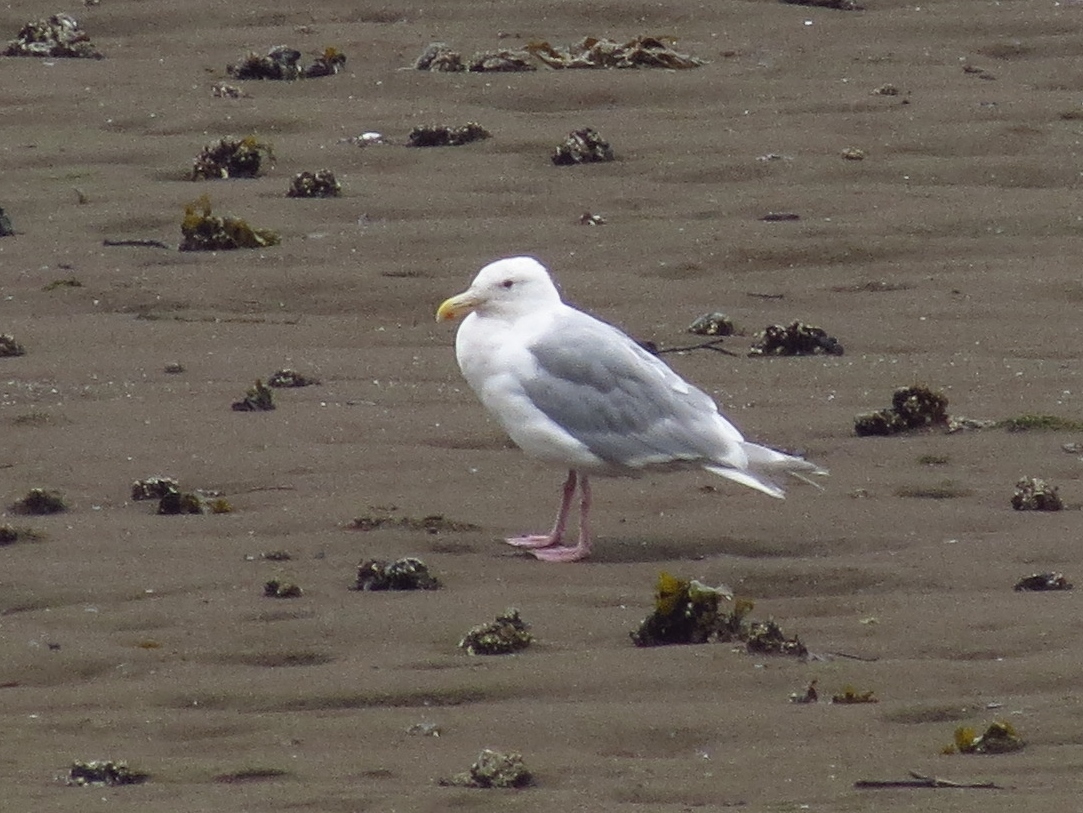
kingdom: Animalia
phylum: Chordata
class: Aves
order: Charadriiformes
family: Laridae
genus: Larus
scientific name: Larus glaucescens
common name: Glaucous-winged gull
